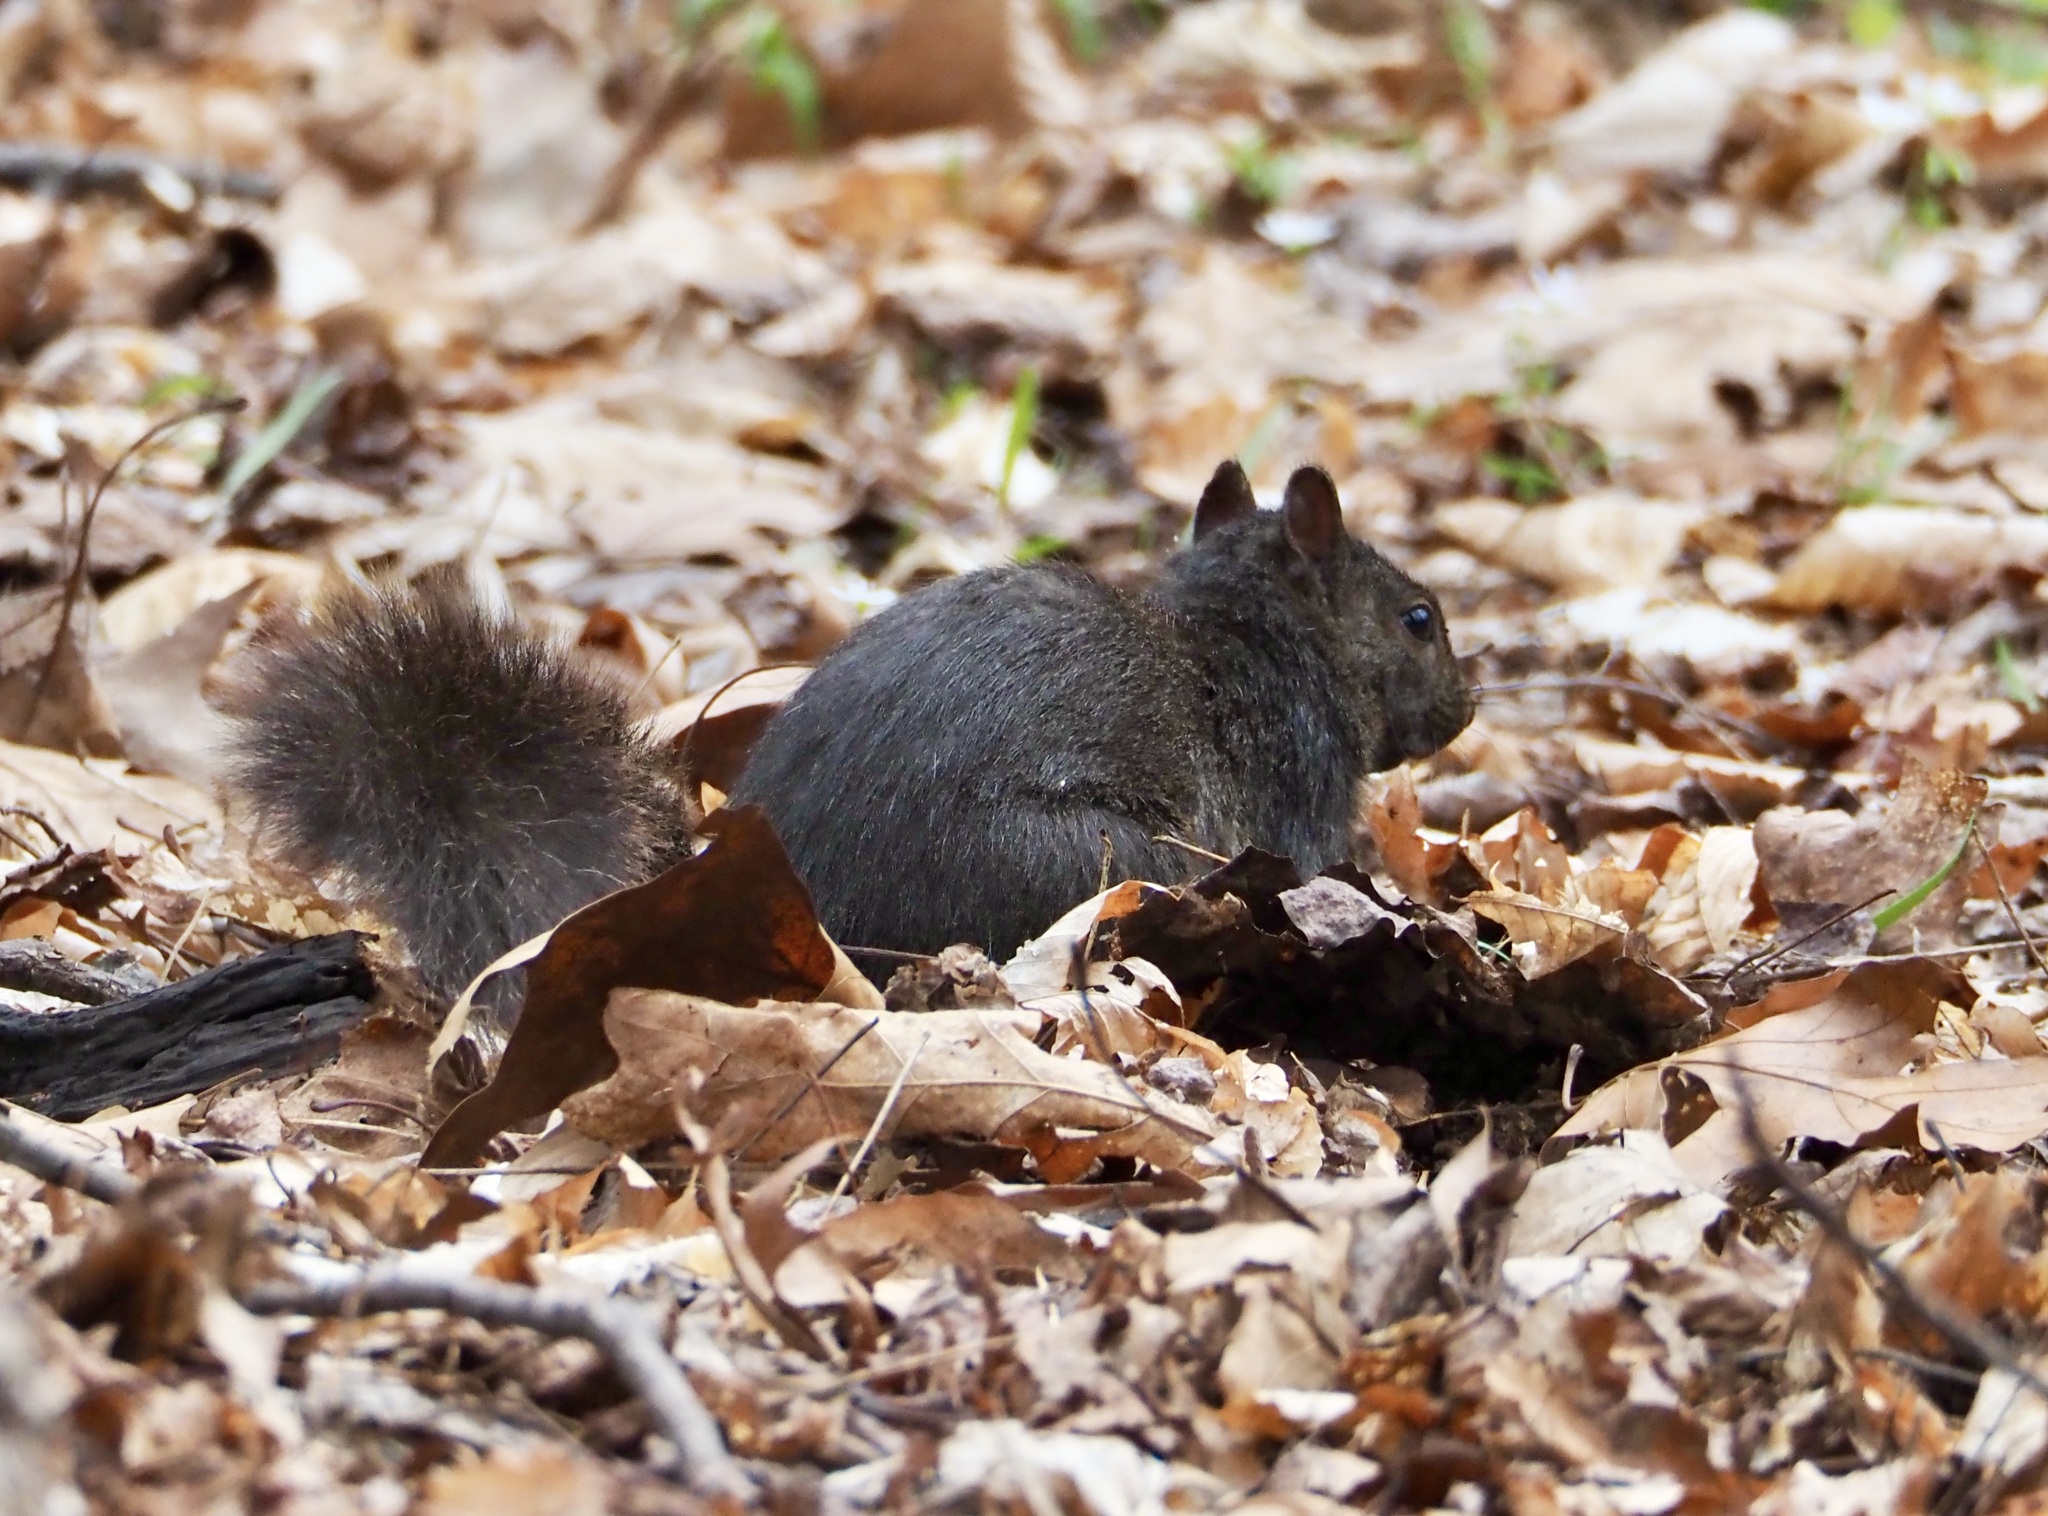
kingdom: Animalia
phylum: Chordata
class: Mammalia
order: Rodentia
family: Sciuridae
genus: Sciurus
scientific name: Sciurus carolinensis
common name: Eastern gray squirrel
